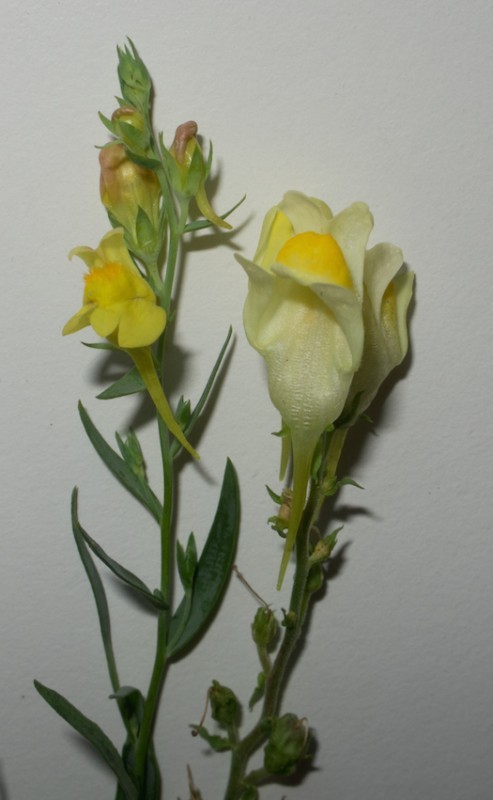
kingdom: Plantae
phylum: Tracheophyta
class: Magnoliopsida
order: Lamiales
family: Plantaginaceae
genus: Linaria
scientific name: Linaria genistifolia
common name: Broomleaf toadflax
